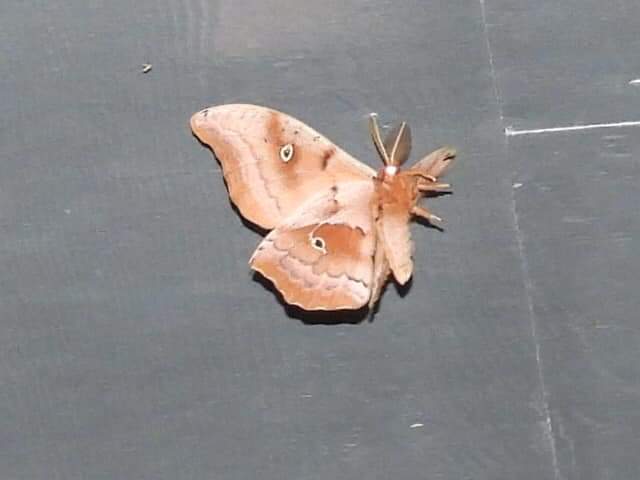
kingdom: Animalia
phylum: Arthropoda
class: Insecta
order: Lepidoptera
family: Saturniidae
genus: Antheraea
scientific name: Antheraea polyphemus
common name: Polyphemus moth
